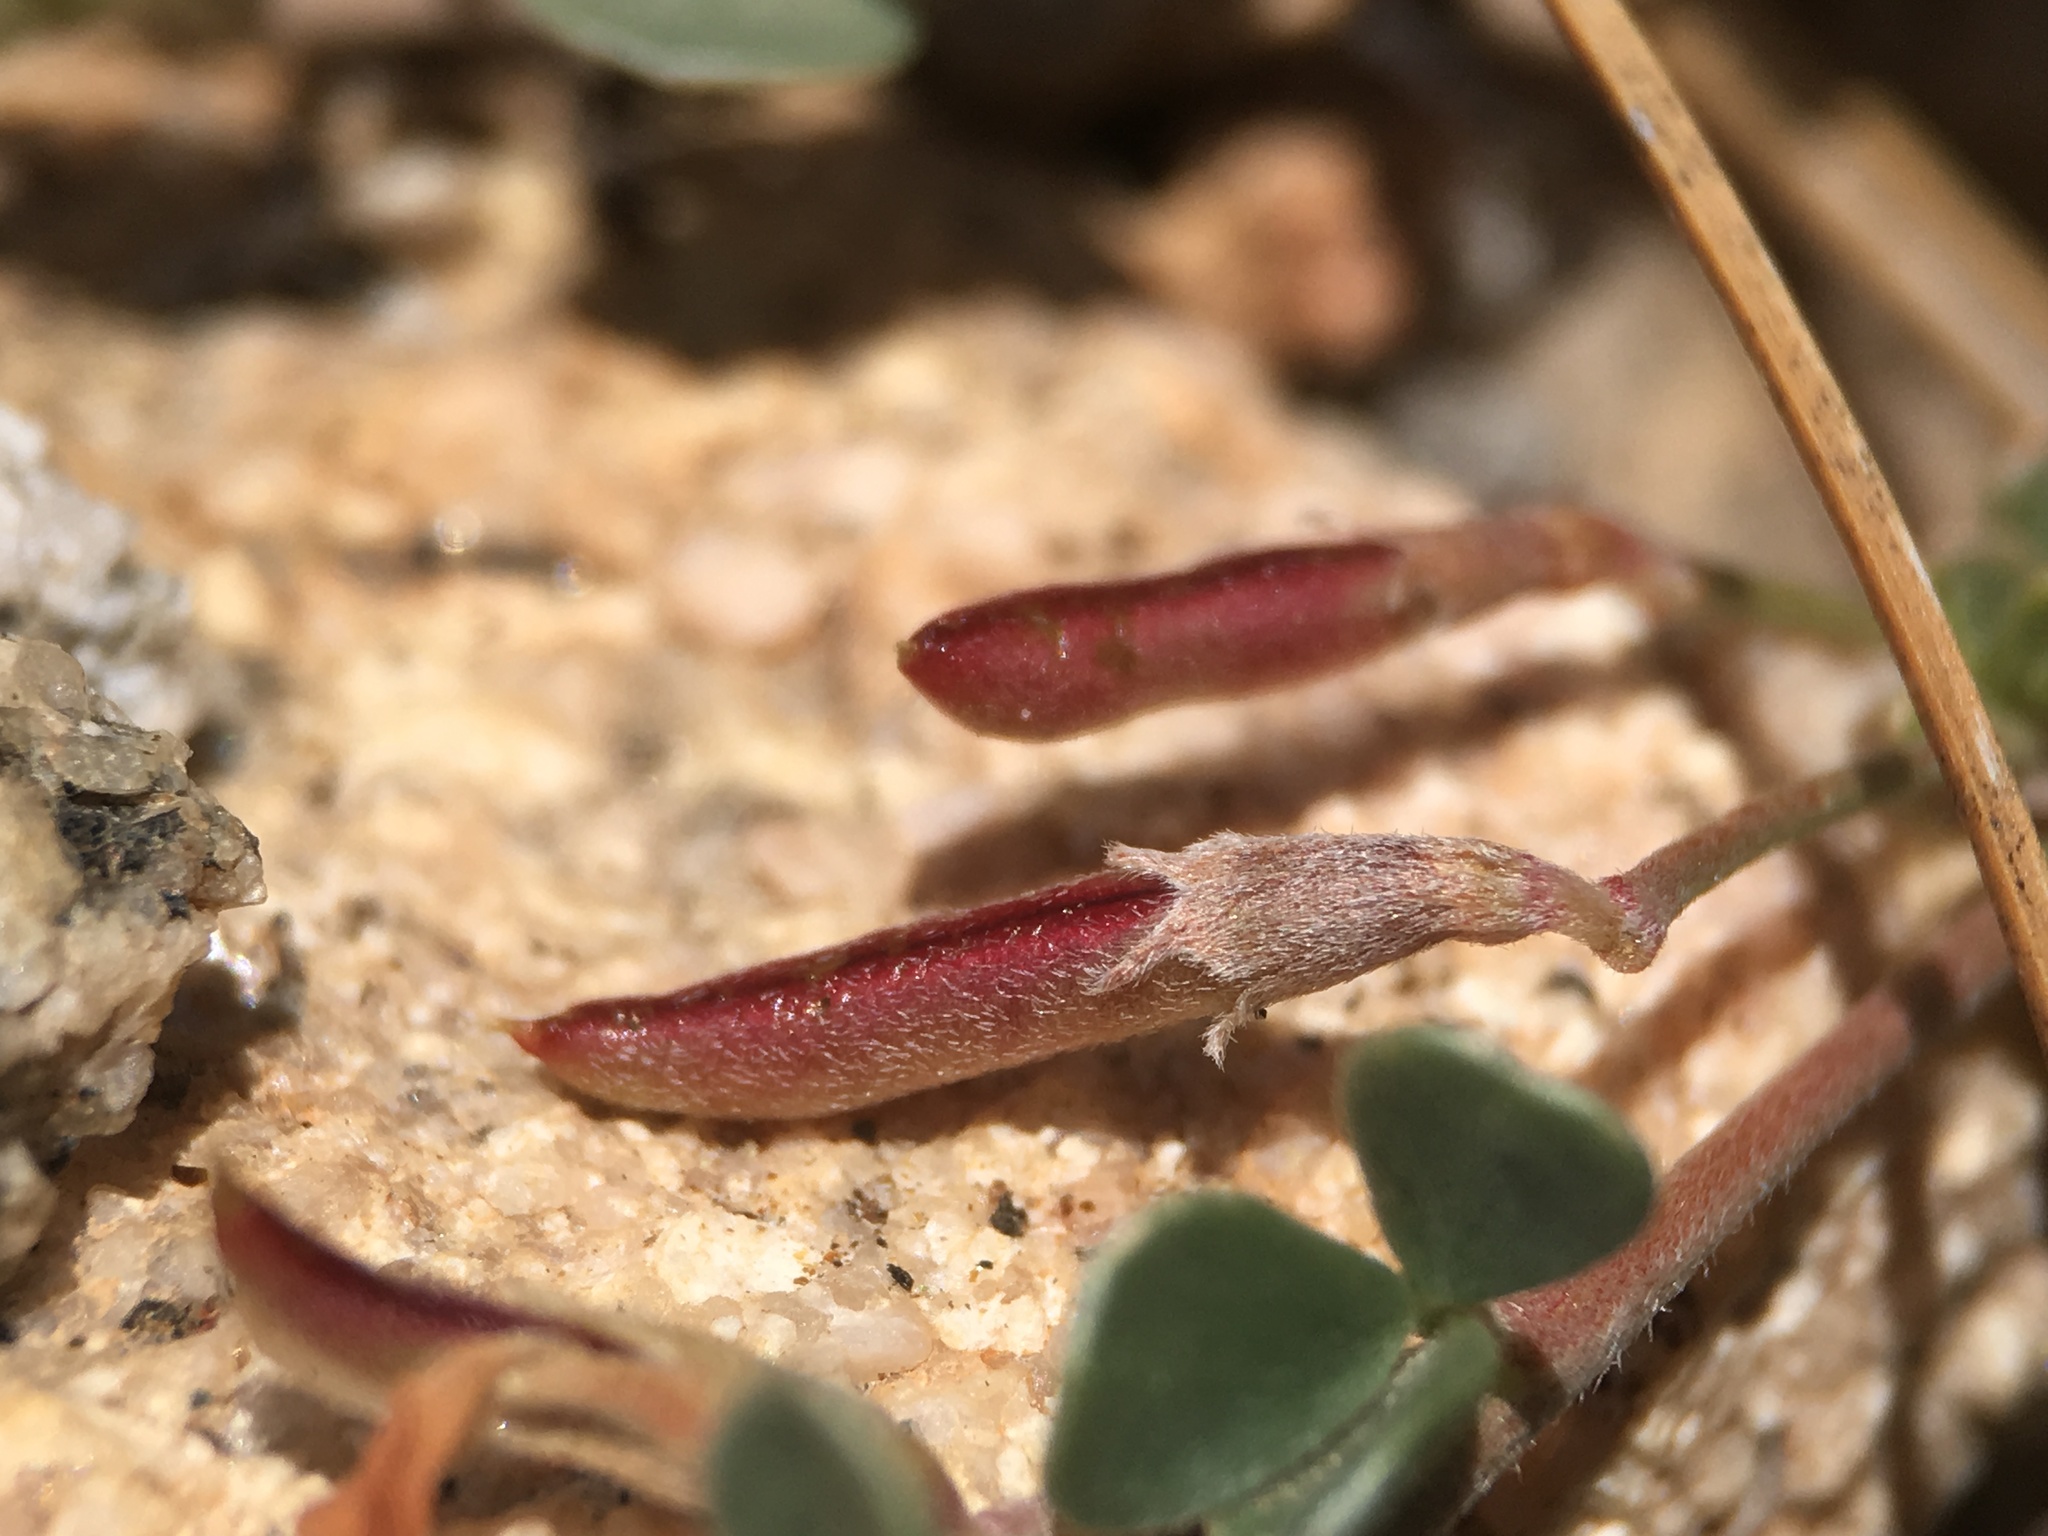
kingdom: Plantae
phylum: Tracheophyta
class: Magnoliopsida
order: Fabales
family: Fabaceae
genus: Acmispon
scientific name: Acmispon argyraeus
